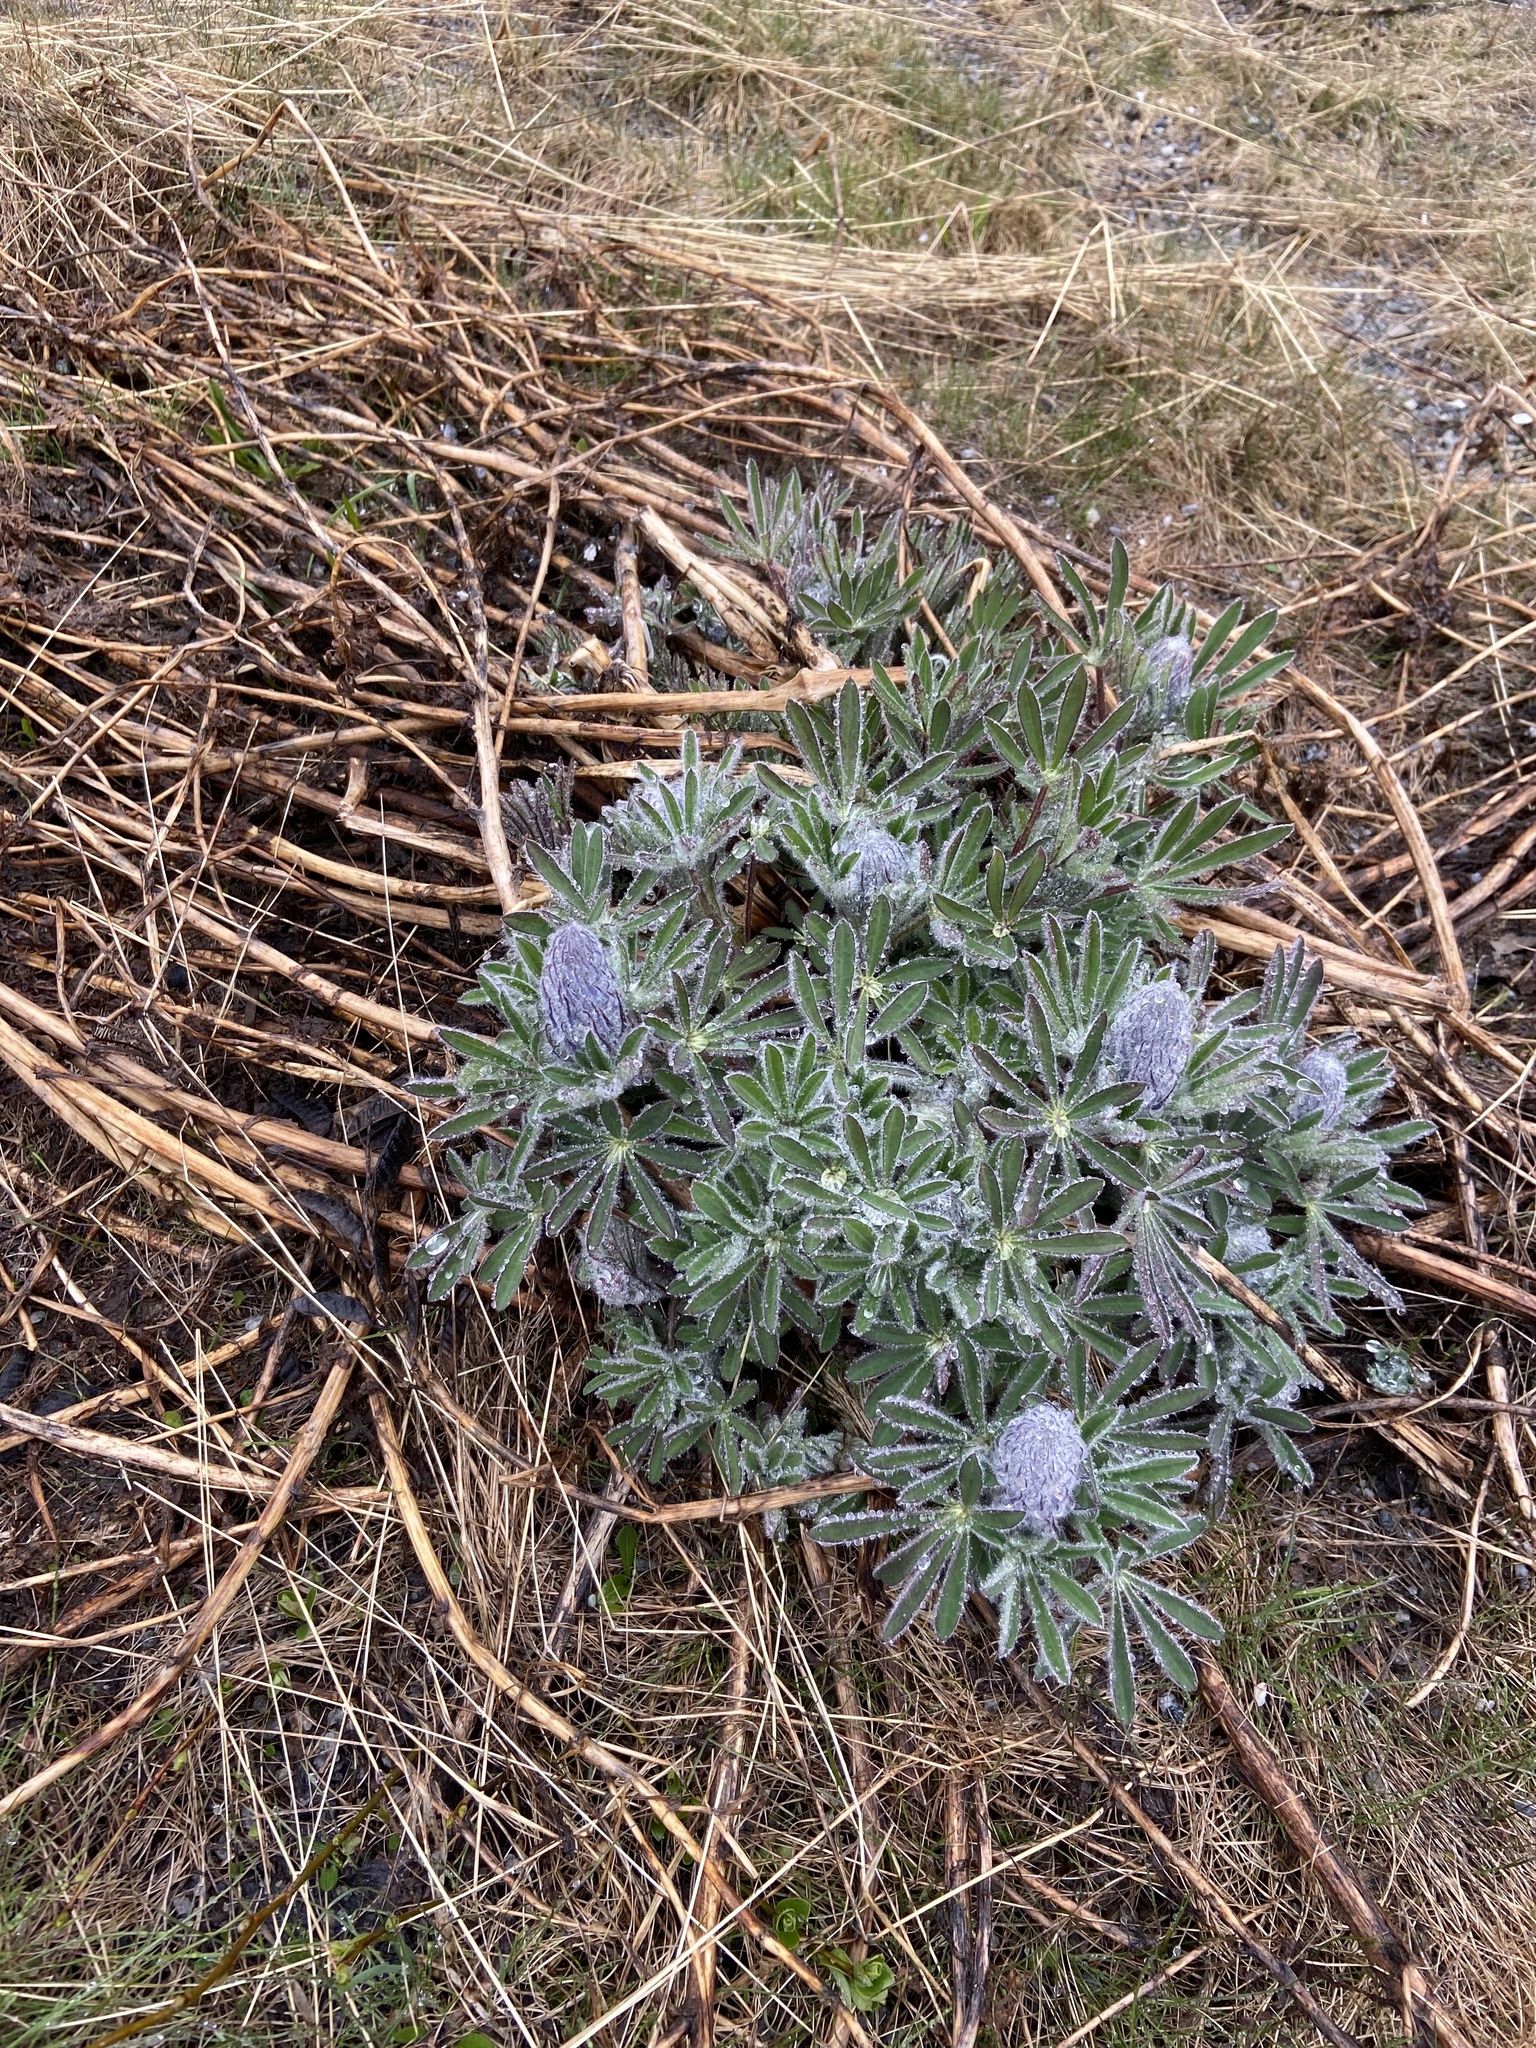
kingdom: Plantae
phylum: Tracheophyta
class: Magnoliopsida
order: Fabales
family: Fabaceae
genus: Lupinus
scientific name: Lupinus nootkatensis
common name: Nootka lupine
